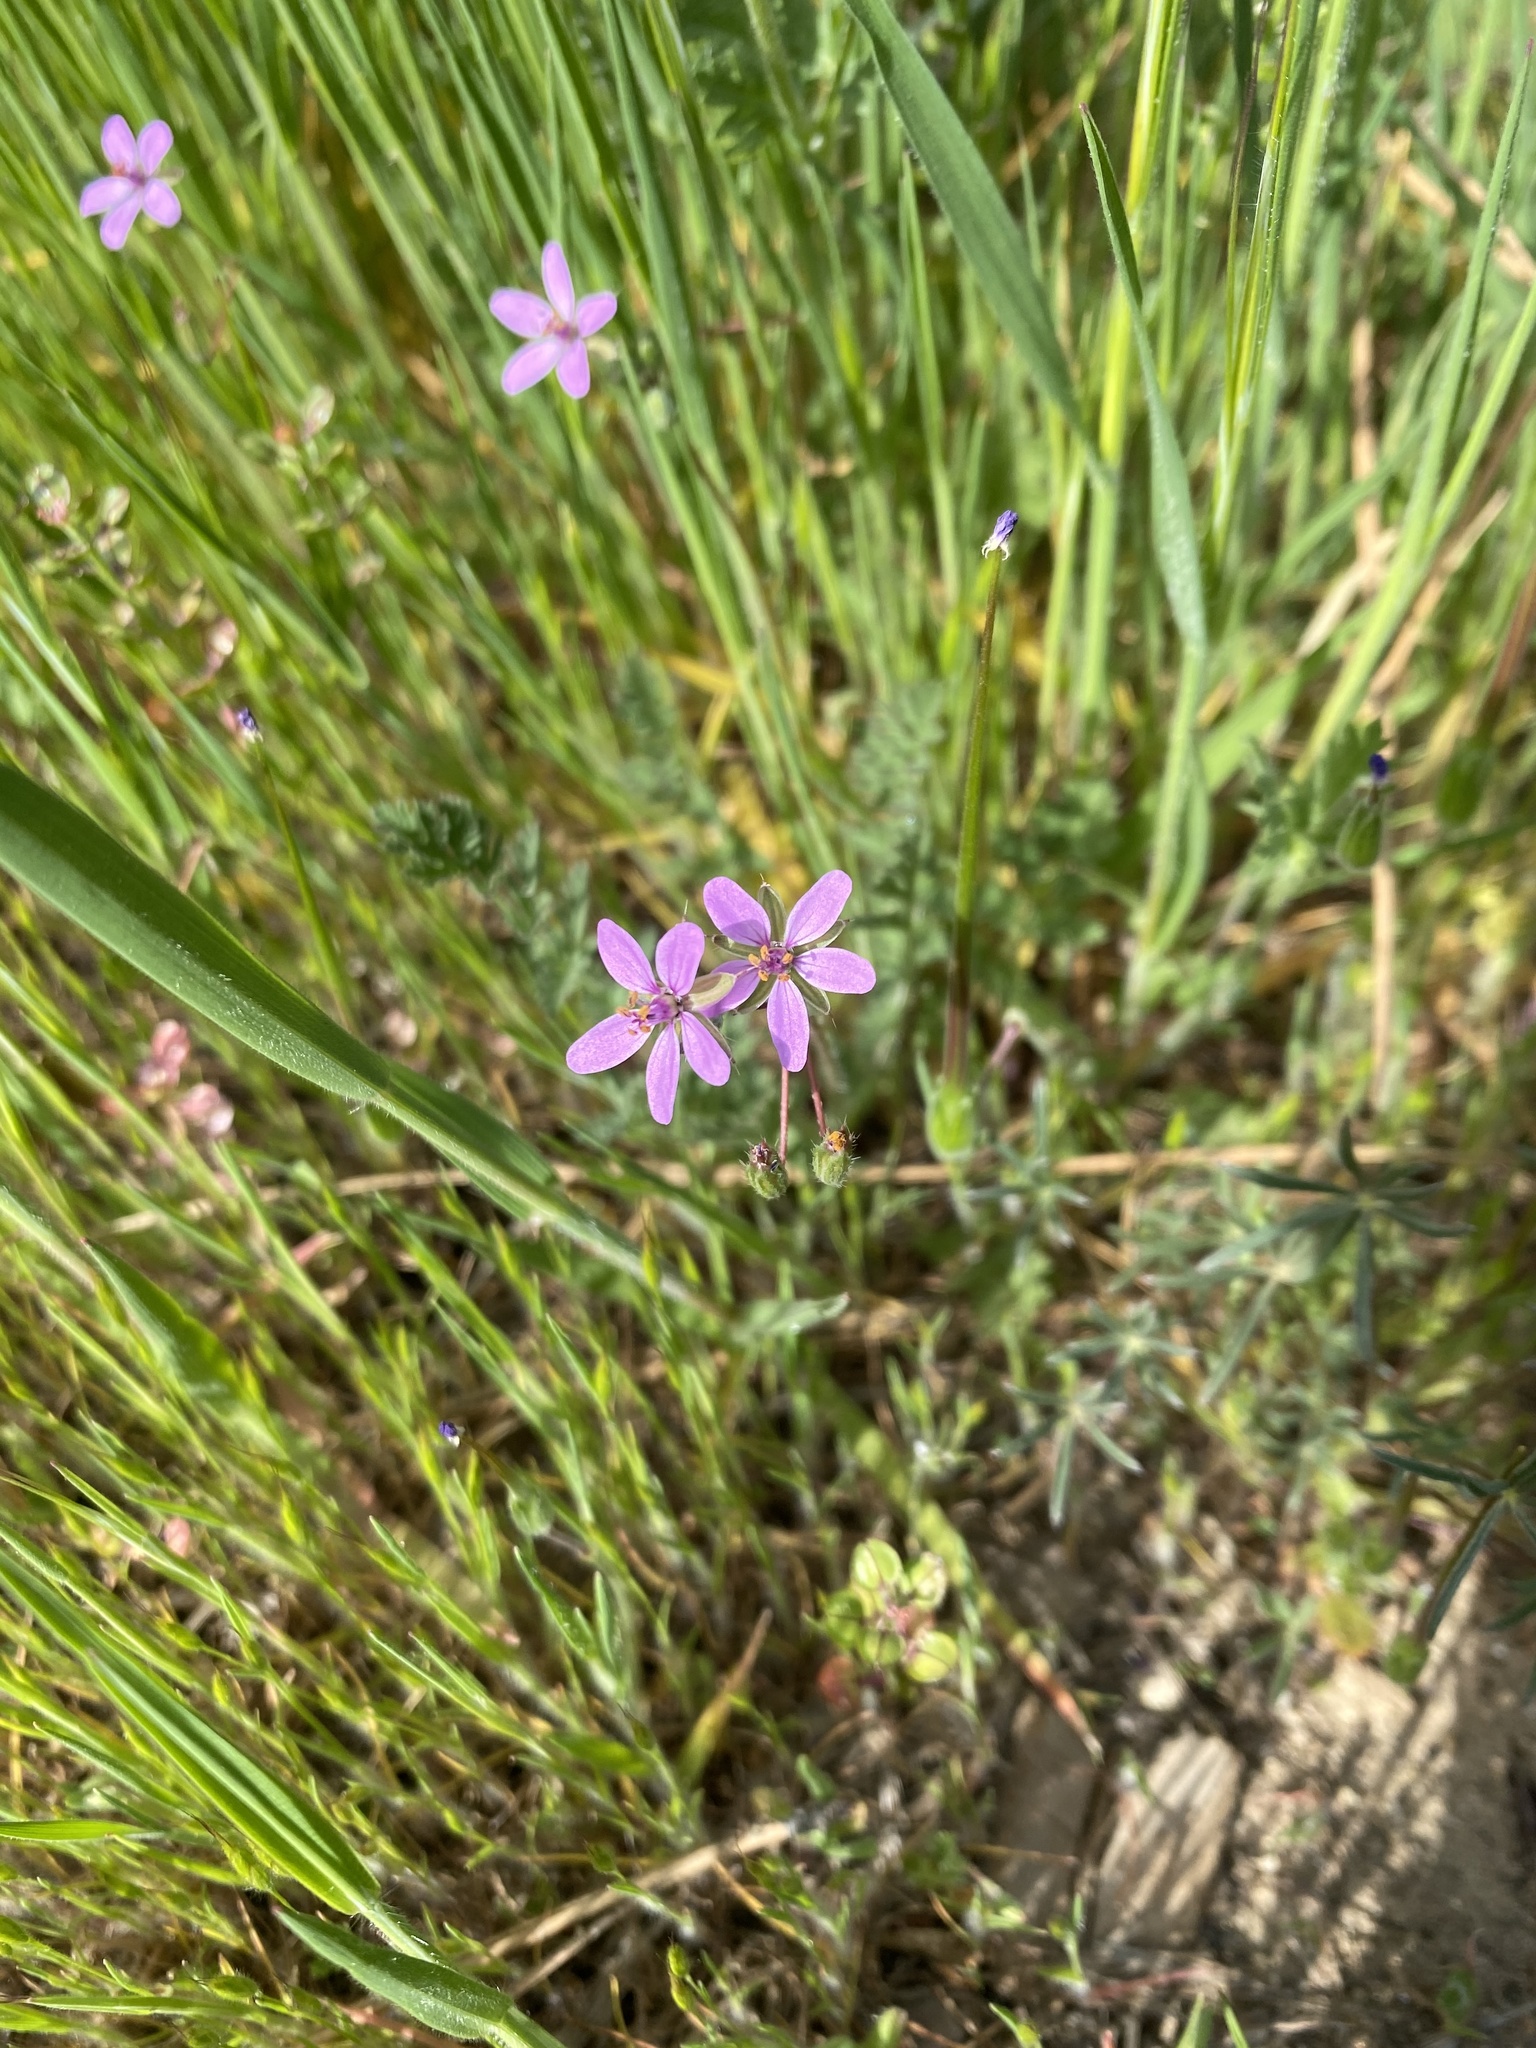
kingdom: Plantae
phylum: Tracheophyta
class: Magnoliopsida
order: Geraniales
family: Geraniaceae
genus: Erodium
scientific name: Erodium cicutarium
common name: Common stork's-bill
